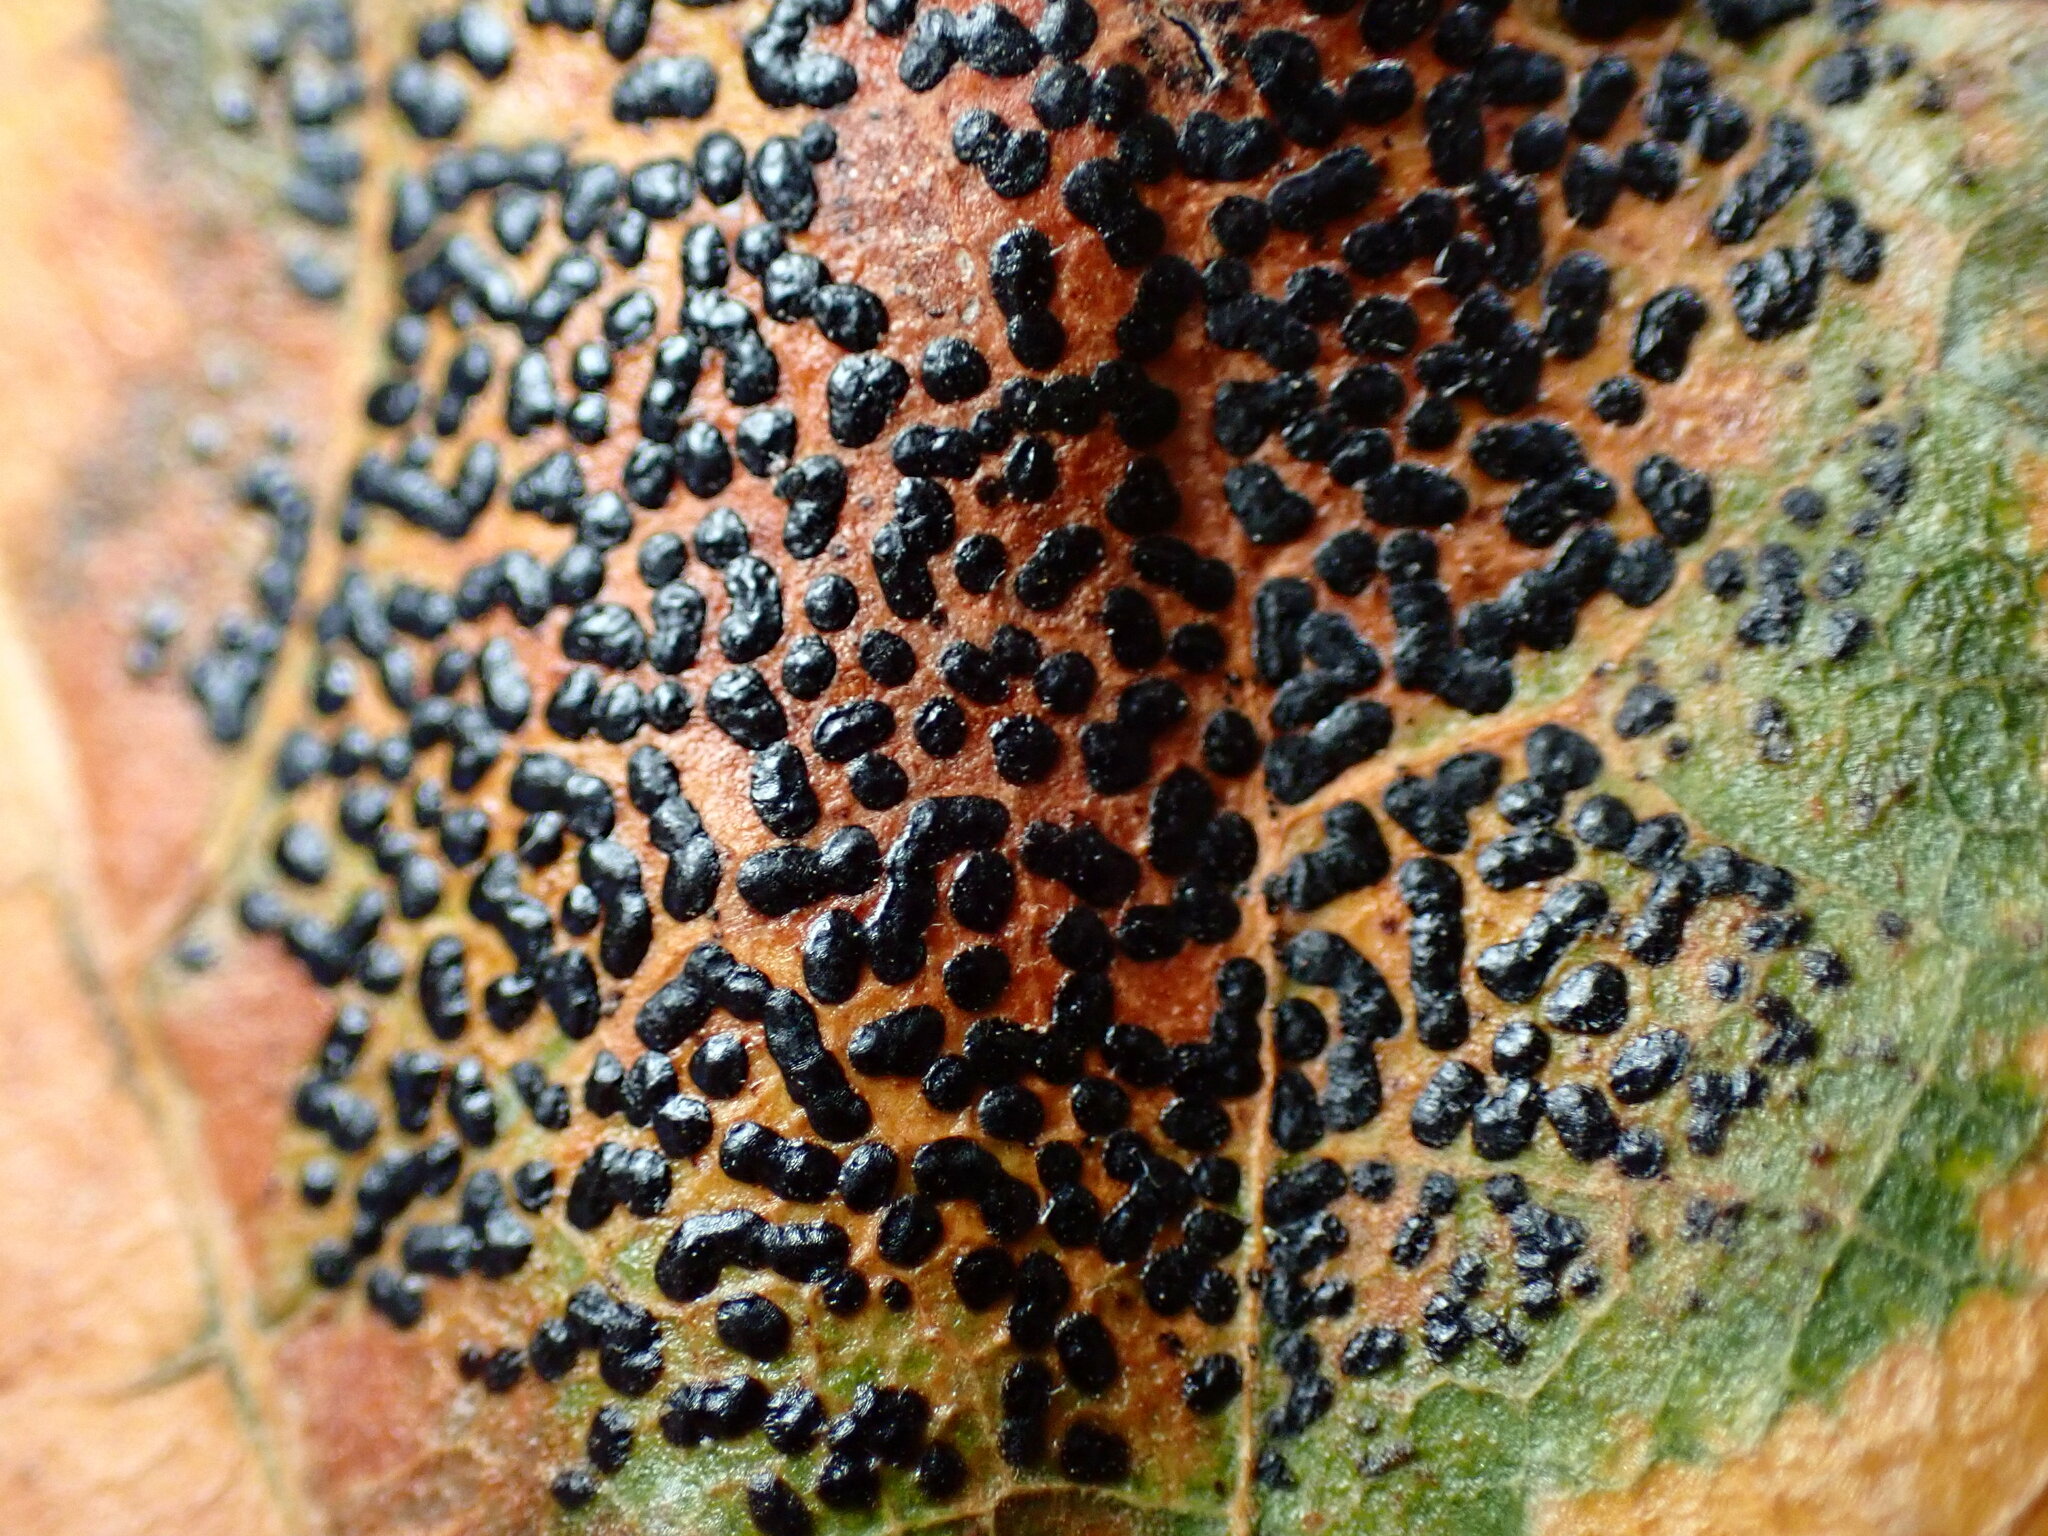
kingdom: Fungi
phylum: Ascomycota
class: Leotiomycetes
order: Rhytismatales
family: Rhytismataceae
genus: Rhytisma
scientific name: Rhytisma punctatum
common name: Speckled tar spot
